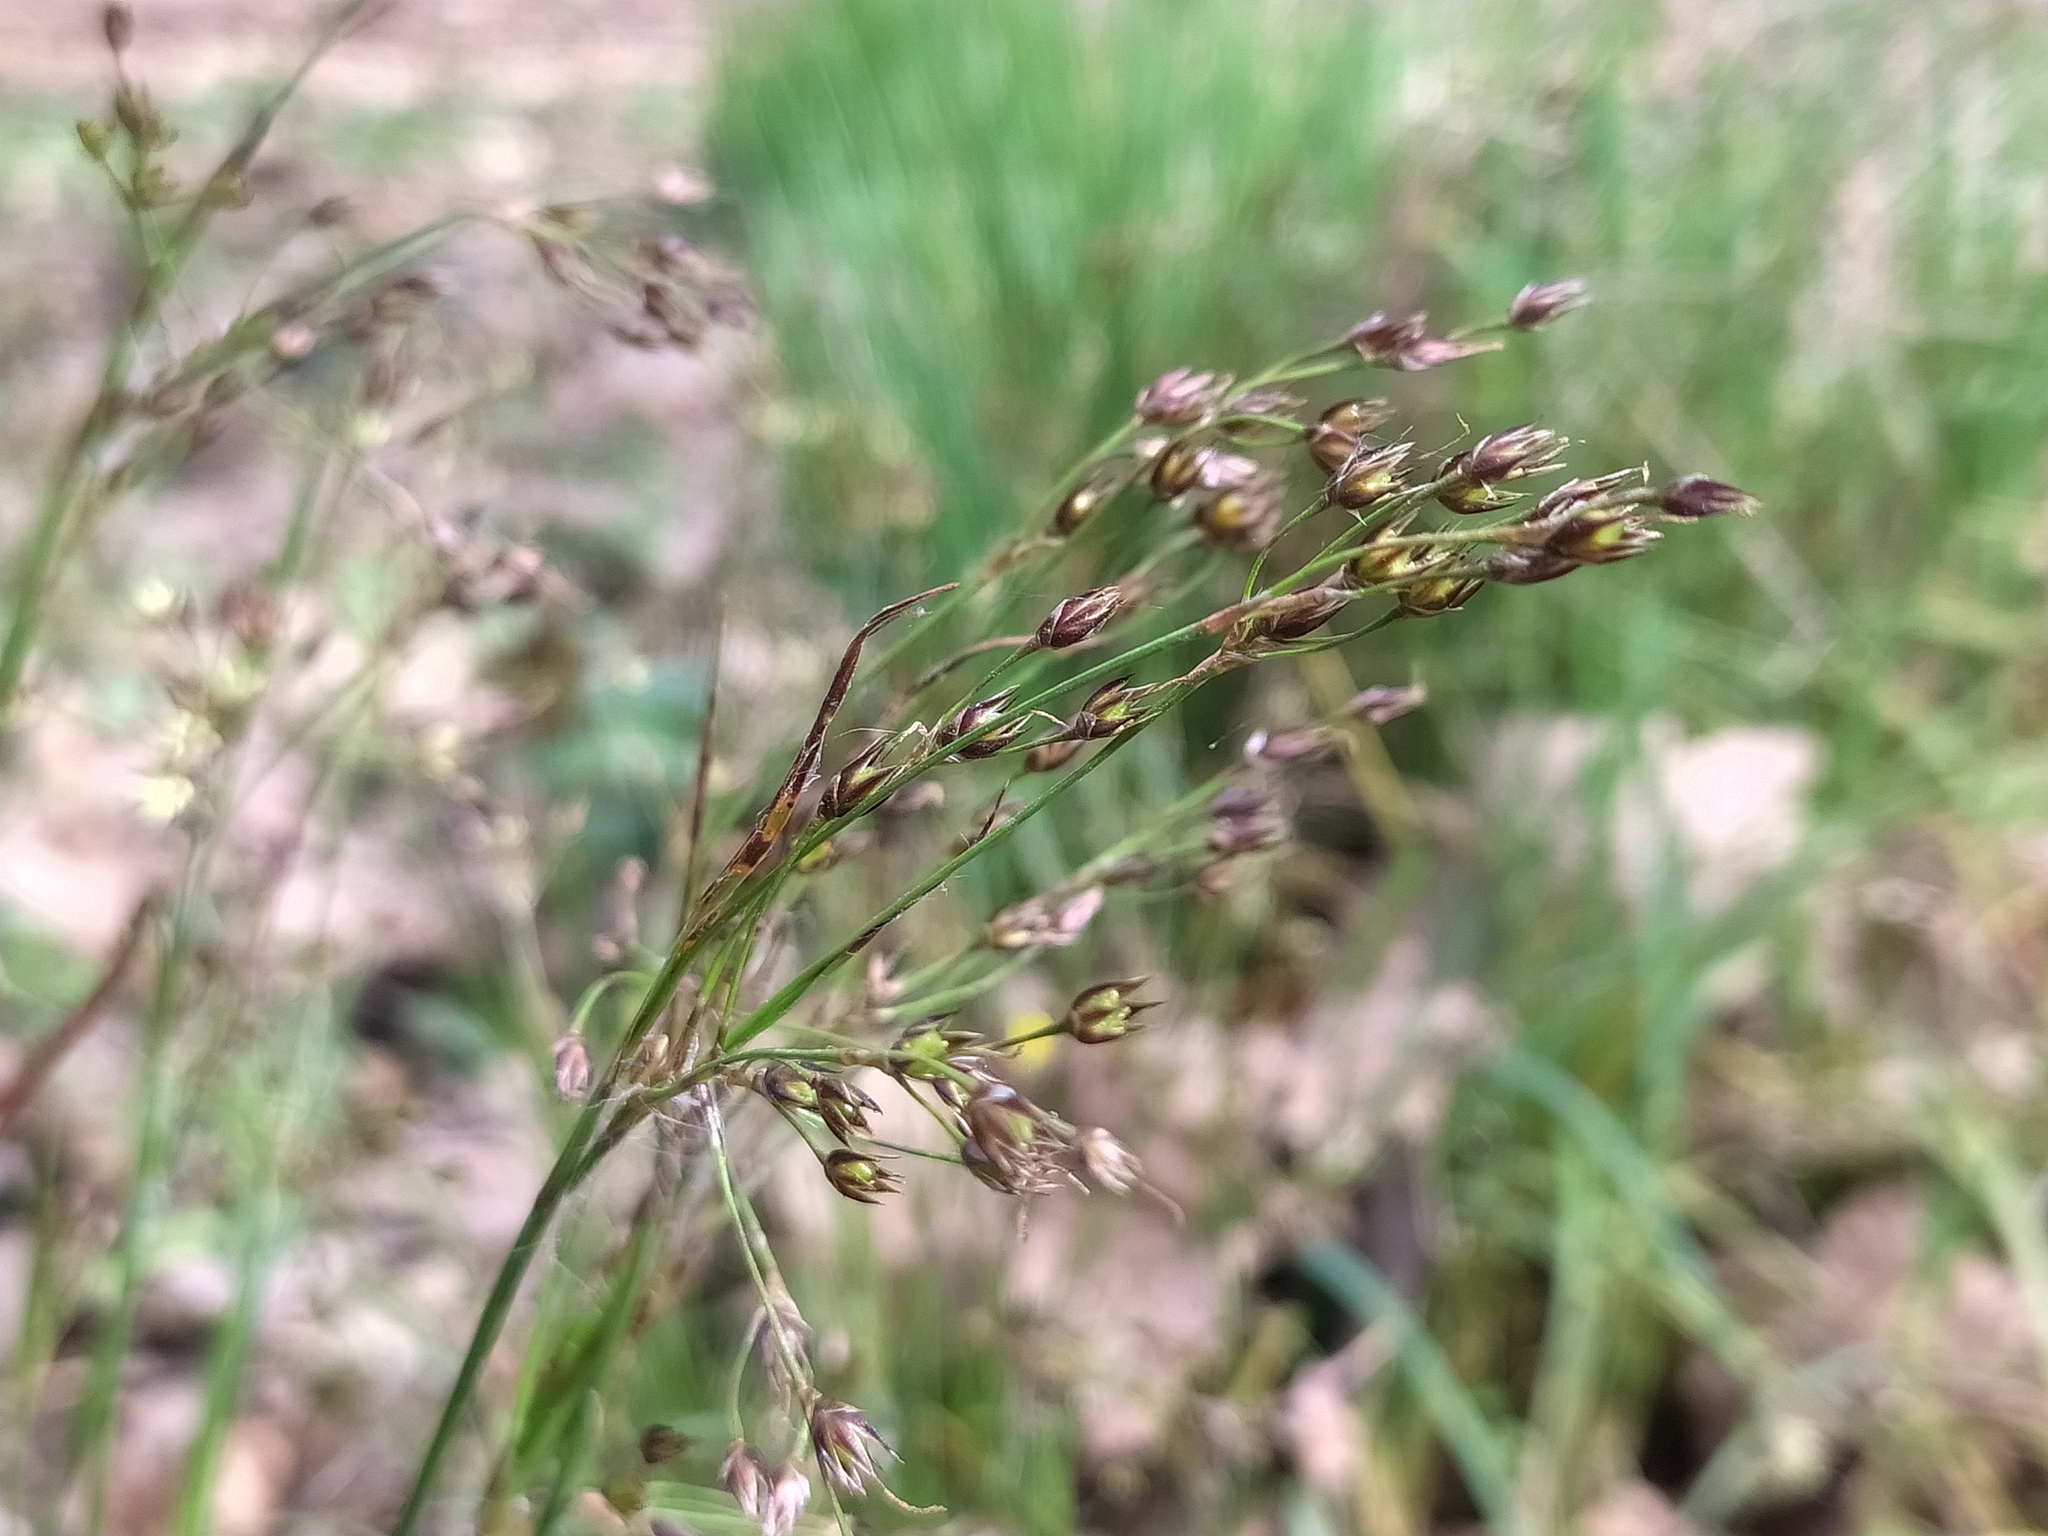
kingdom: Plantae
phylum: Tracheophyta
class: Liliopsida
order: Poales
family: Juncaceae
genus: Luzula
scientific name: Luzula forsteri
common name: Southern wood-rush
